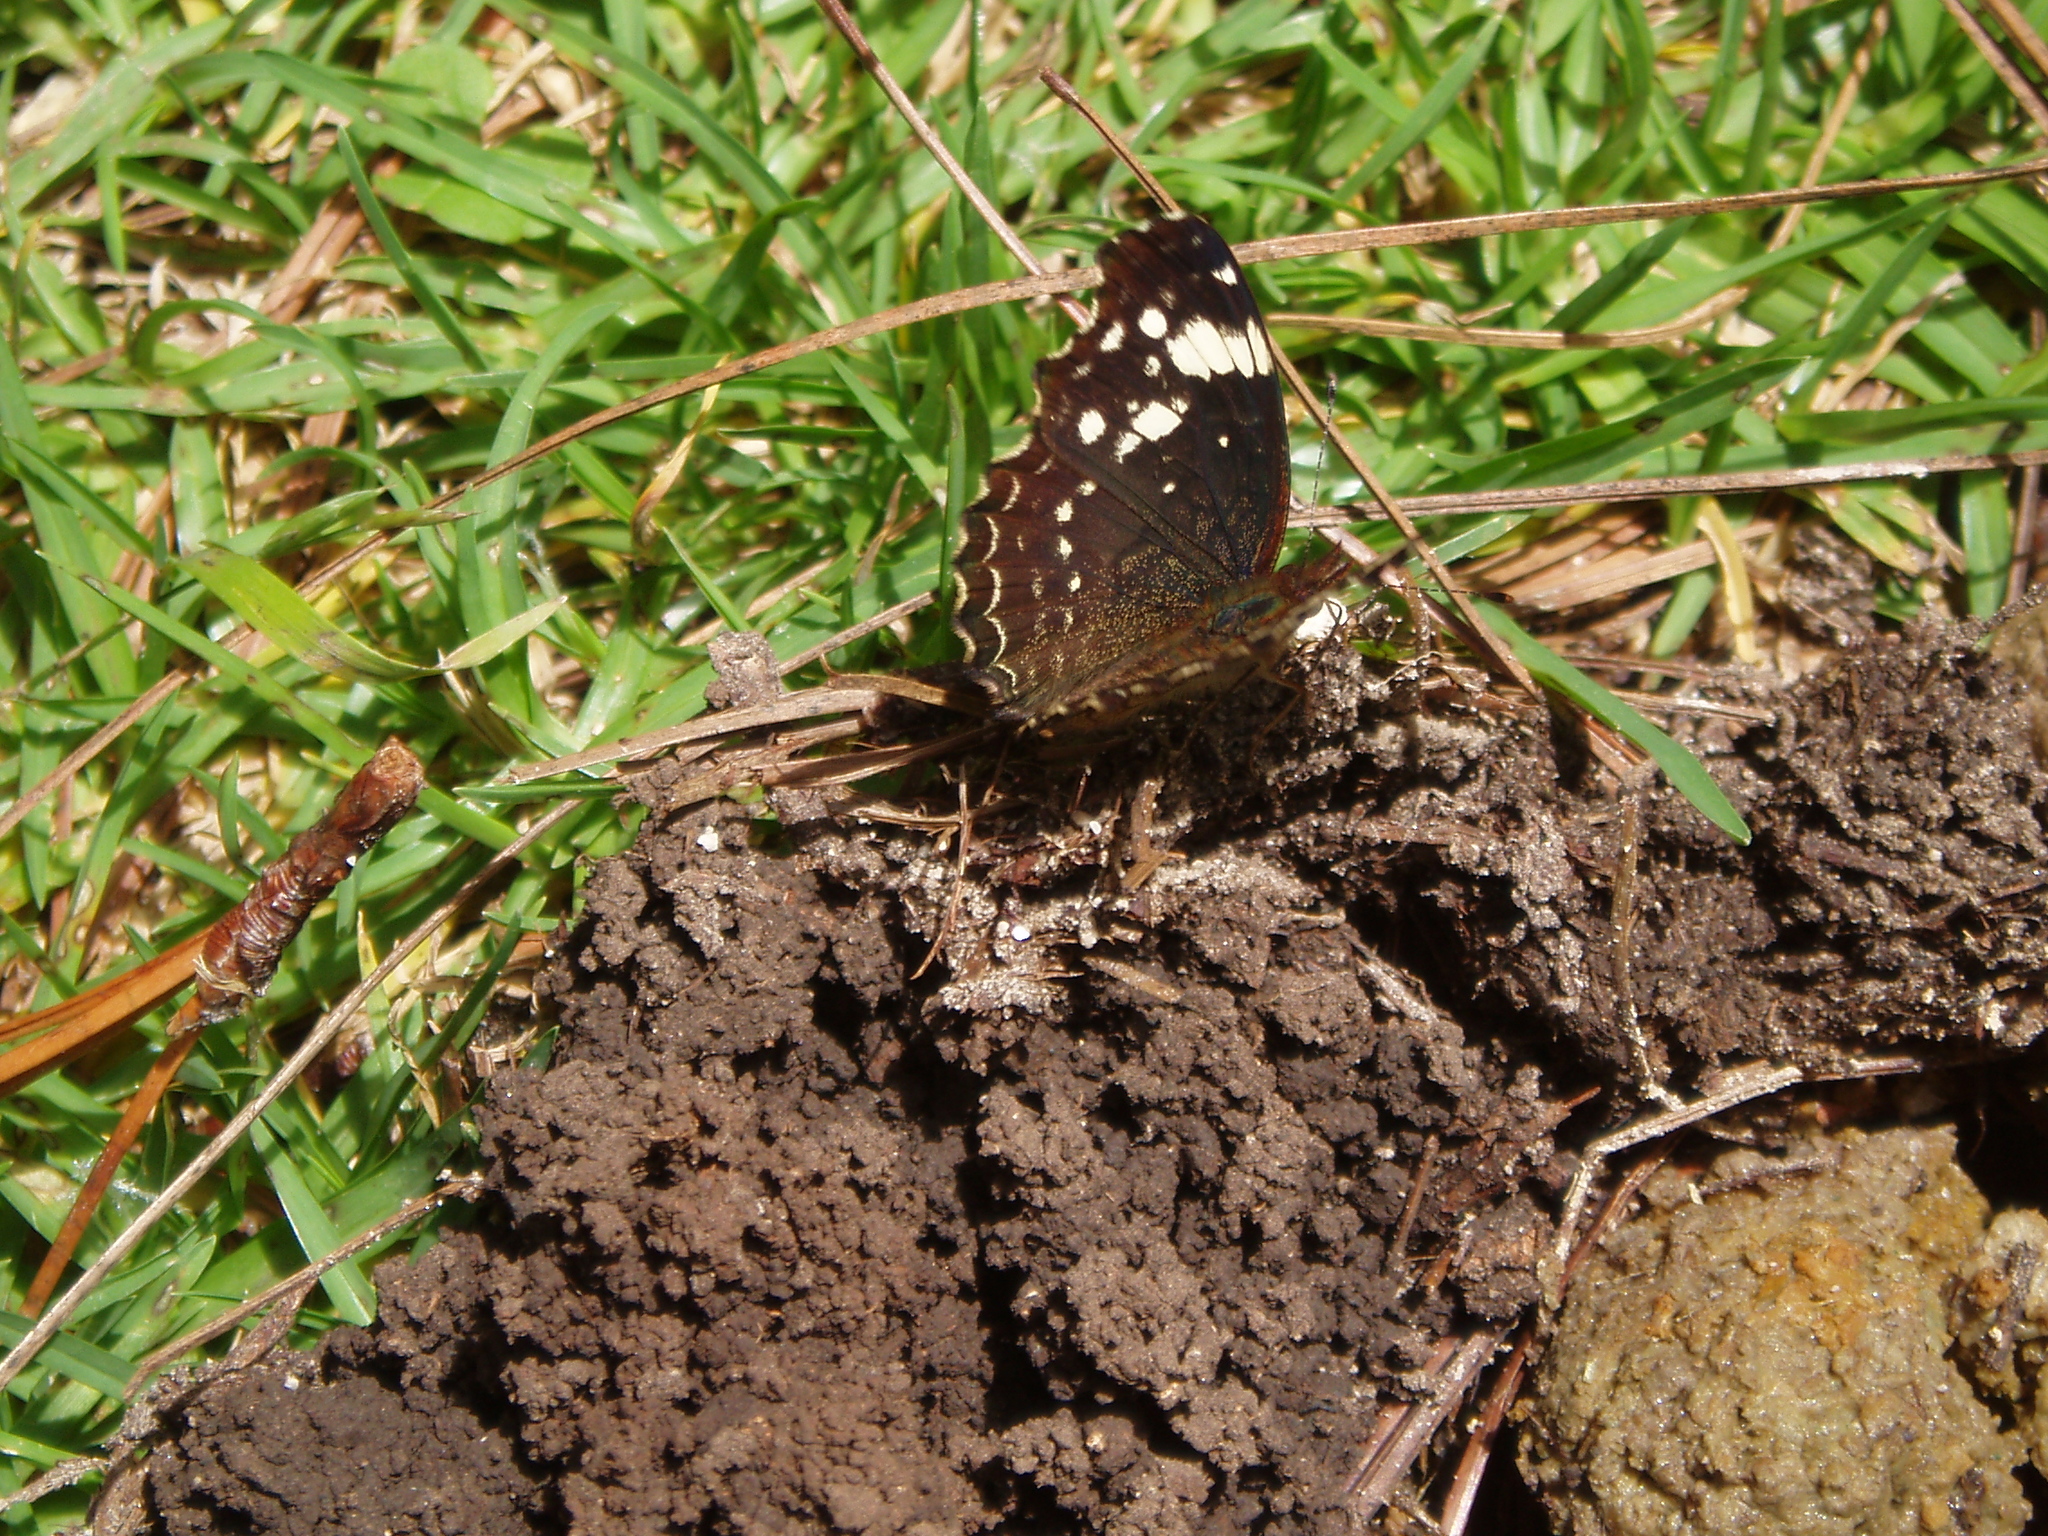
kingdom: Animalia
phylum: Arthropoda
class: Insecta
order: Lepidoptera
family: Nymphalidae
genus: Anthanassa
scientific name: Anthanassa sitalces
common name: Montane crescent
